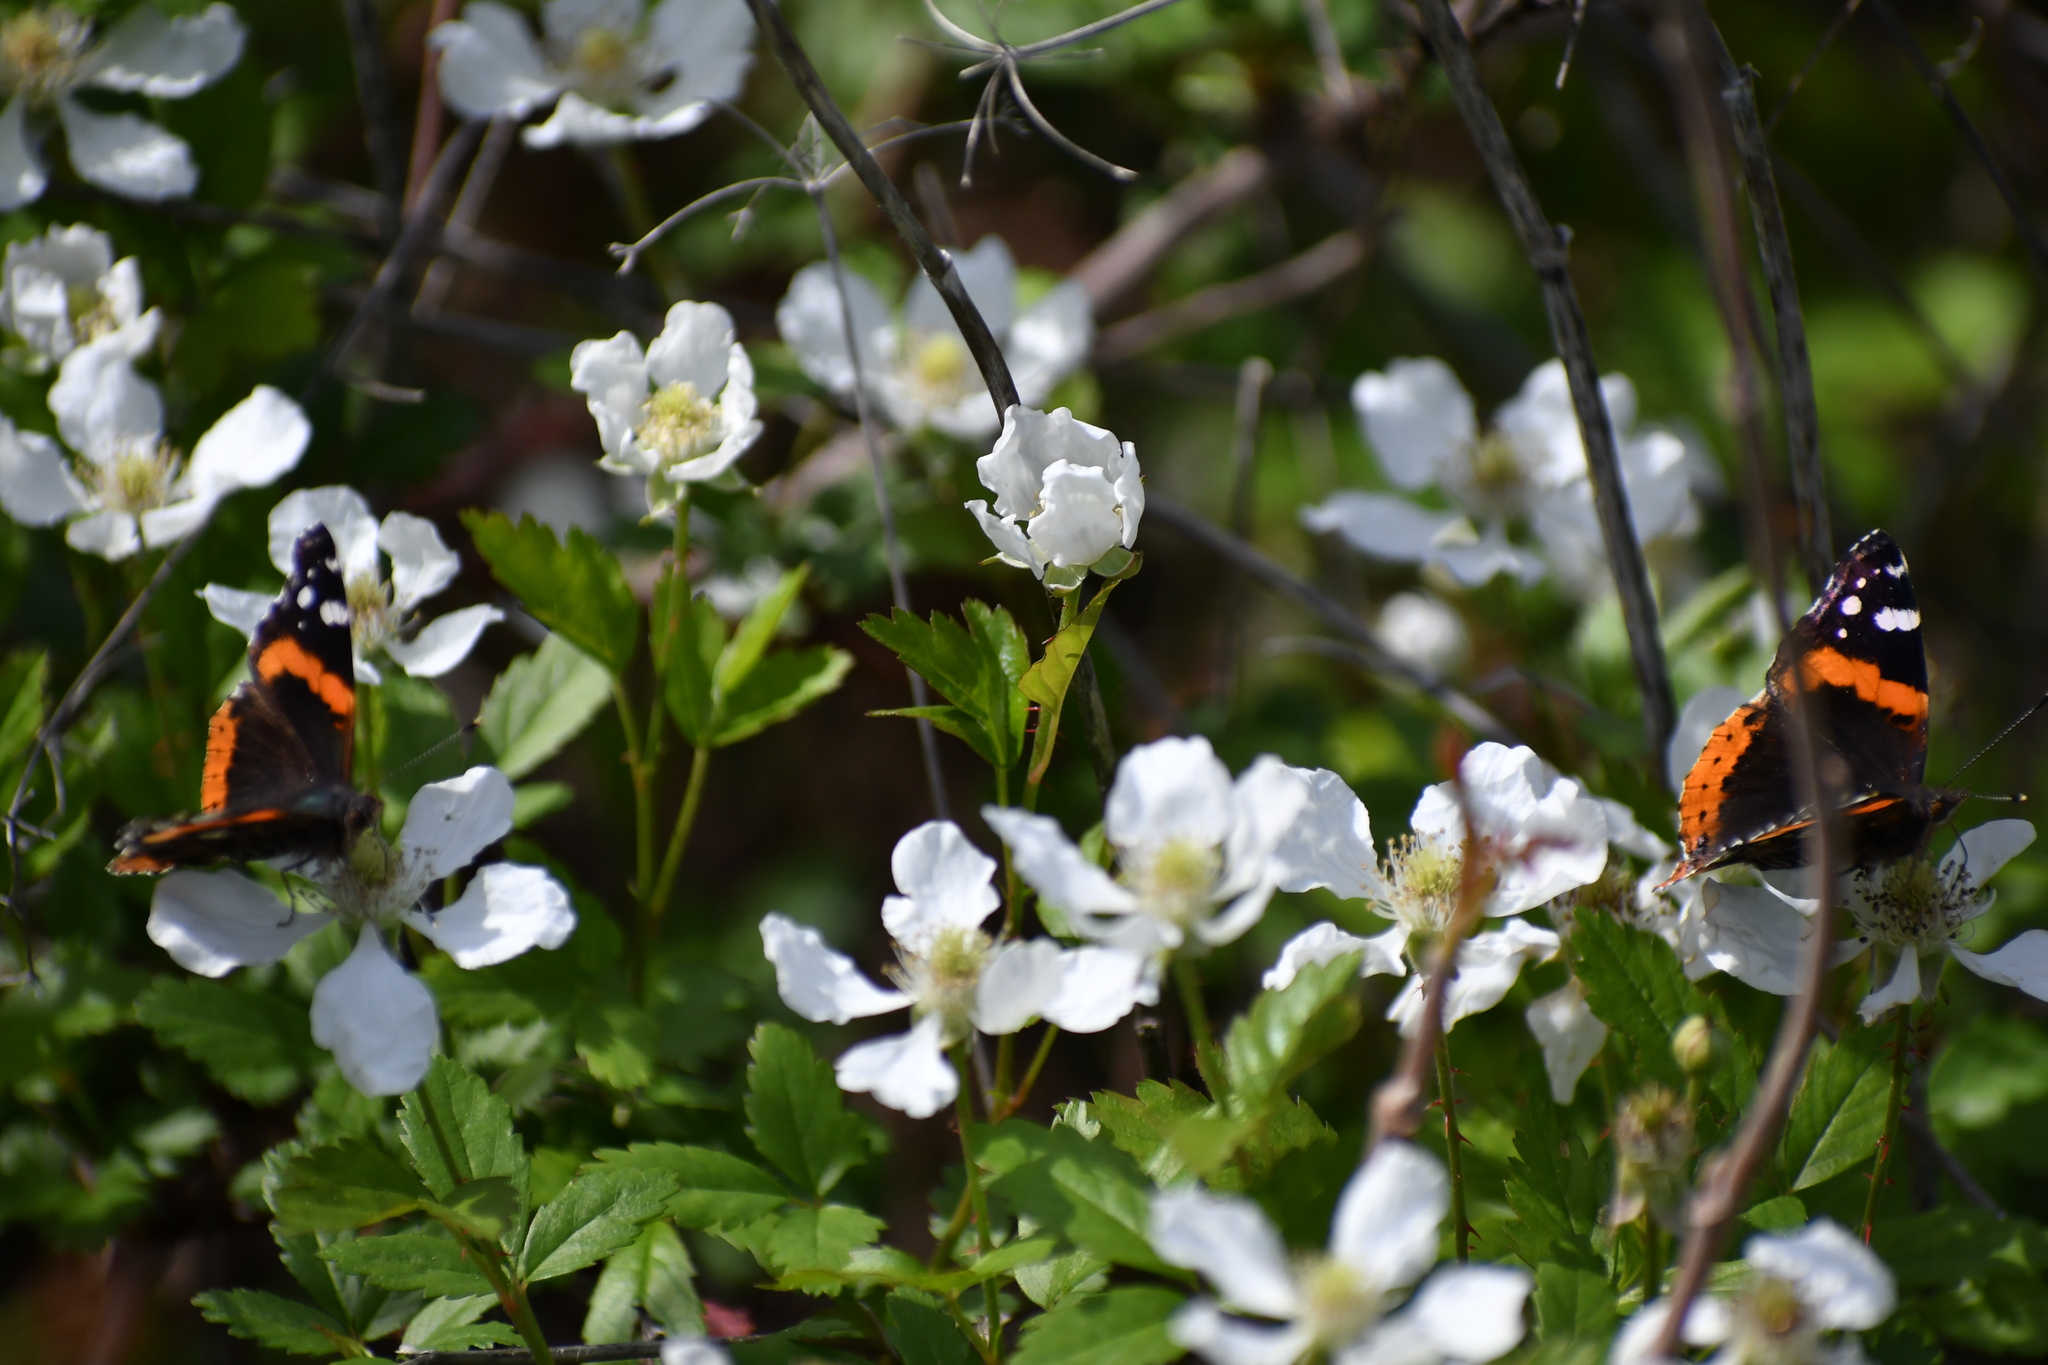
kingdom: Animalia
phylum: Arthropoda
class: Insecta
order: Lepidoptera
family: Nymphalidae
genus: Vanessa
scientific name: Vanessa atalanta
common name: Red admiral
